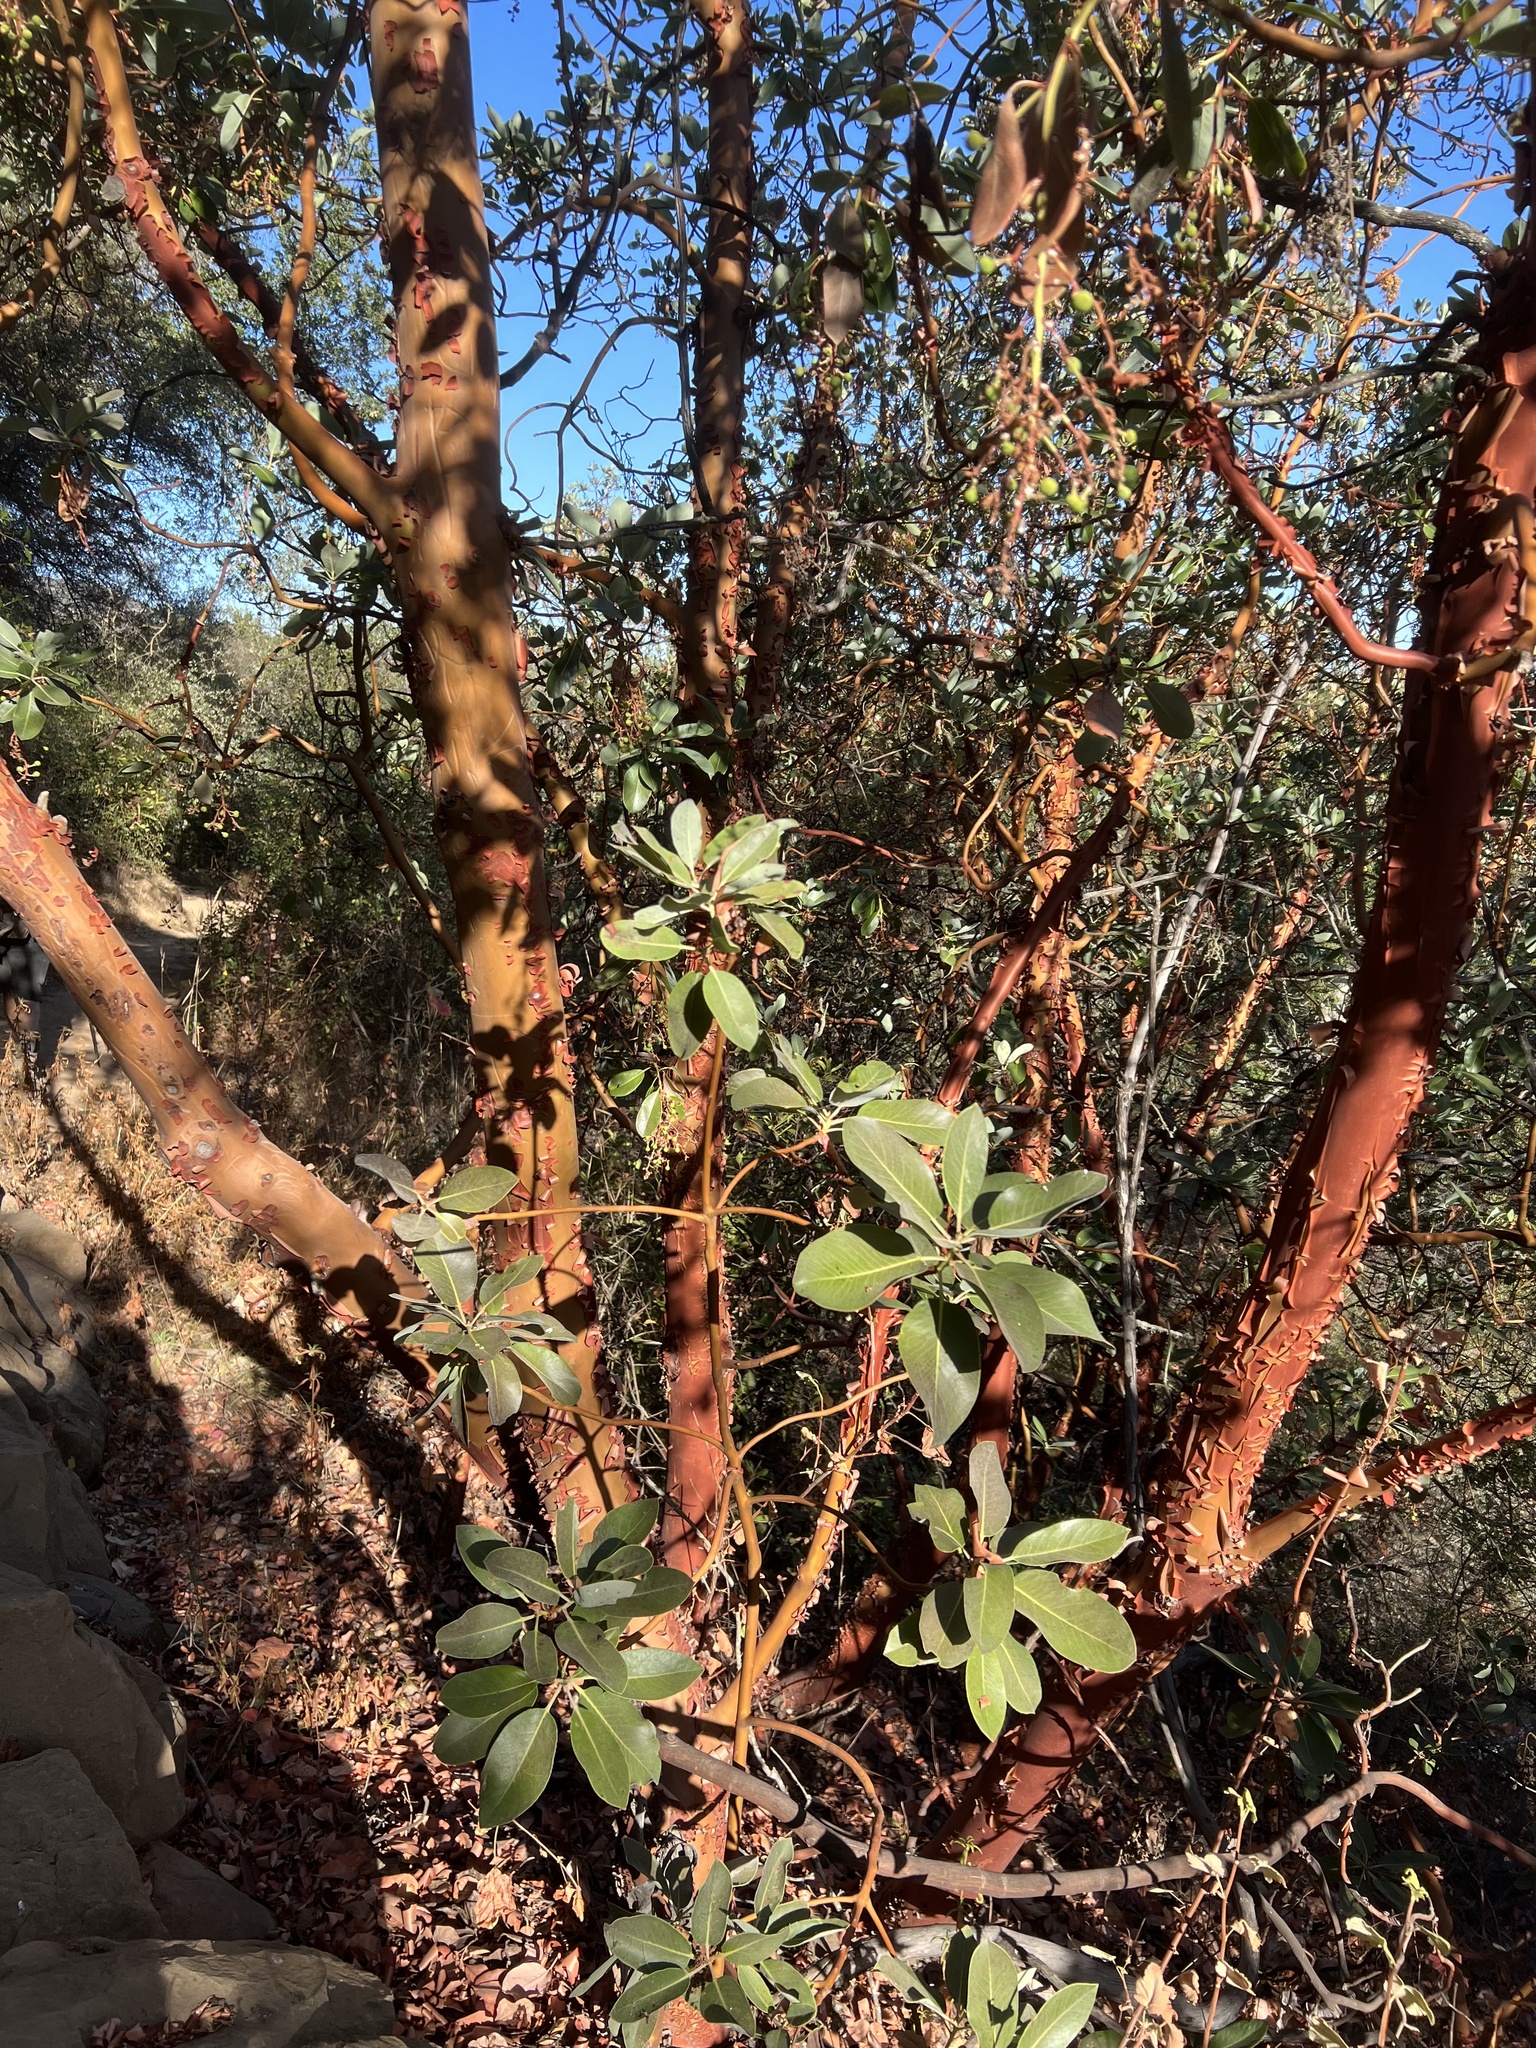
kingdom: Plantae
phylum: Tracheophyta
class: Magnoliopsida
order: Ericales
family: Ericaceae
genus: Arbutus
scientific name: Arbutus menziesii
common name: Pacific madrone
